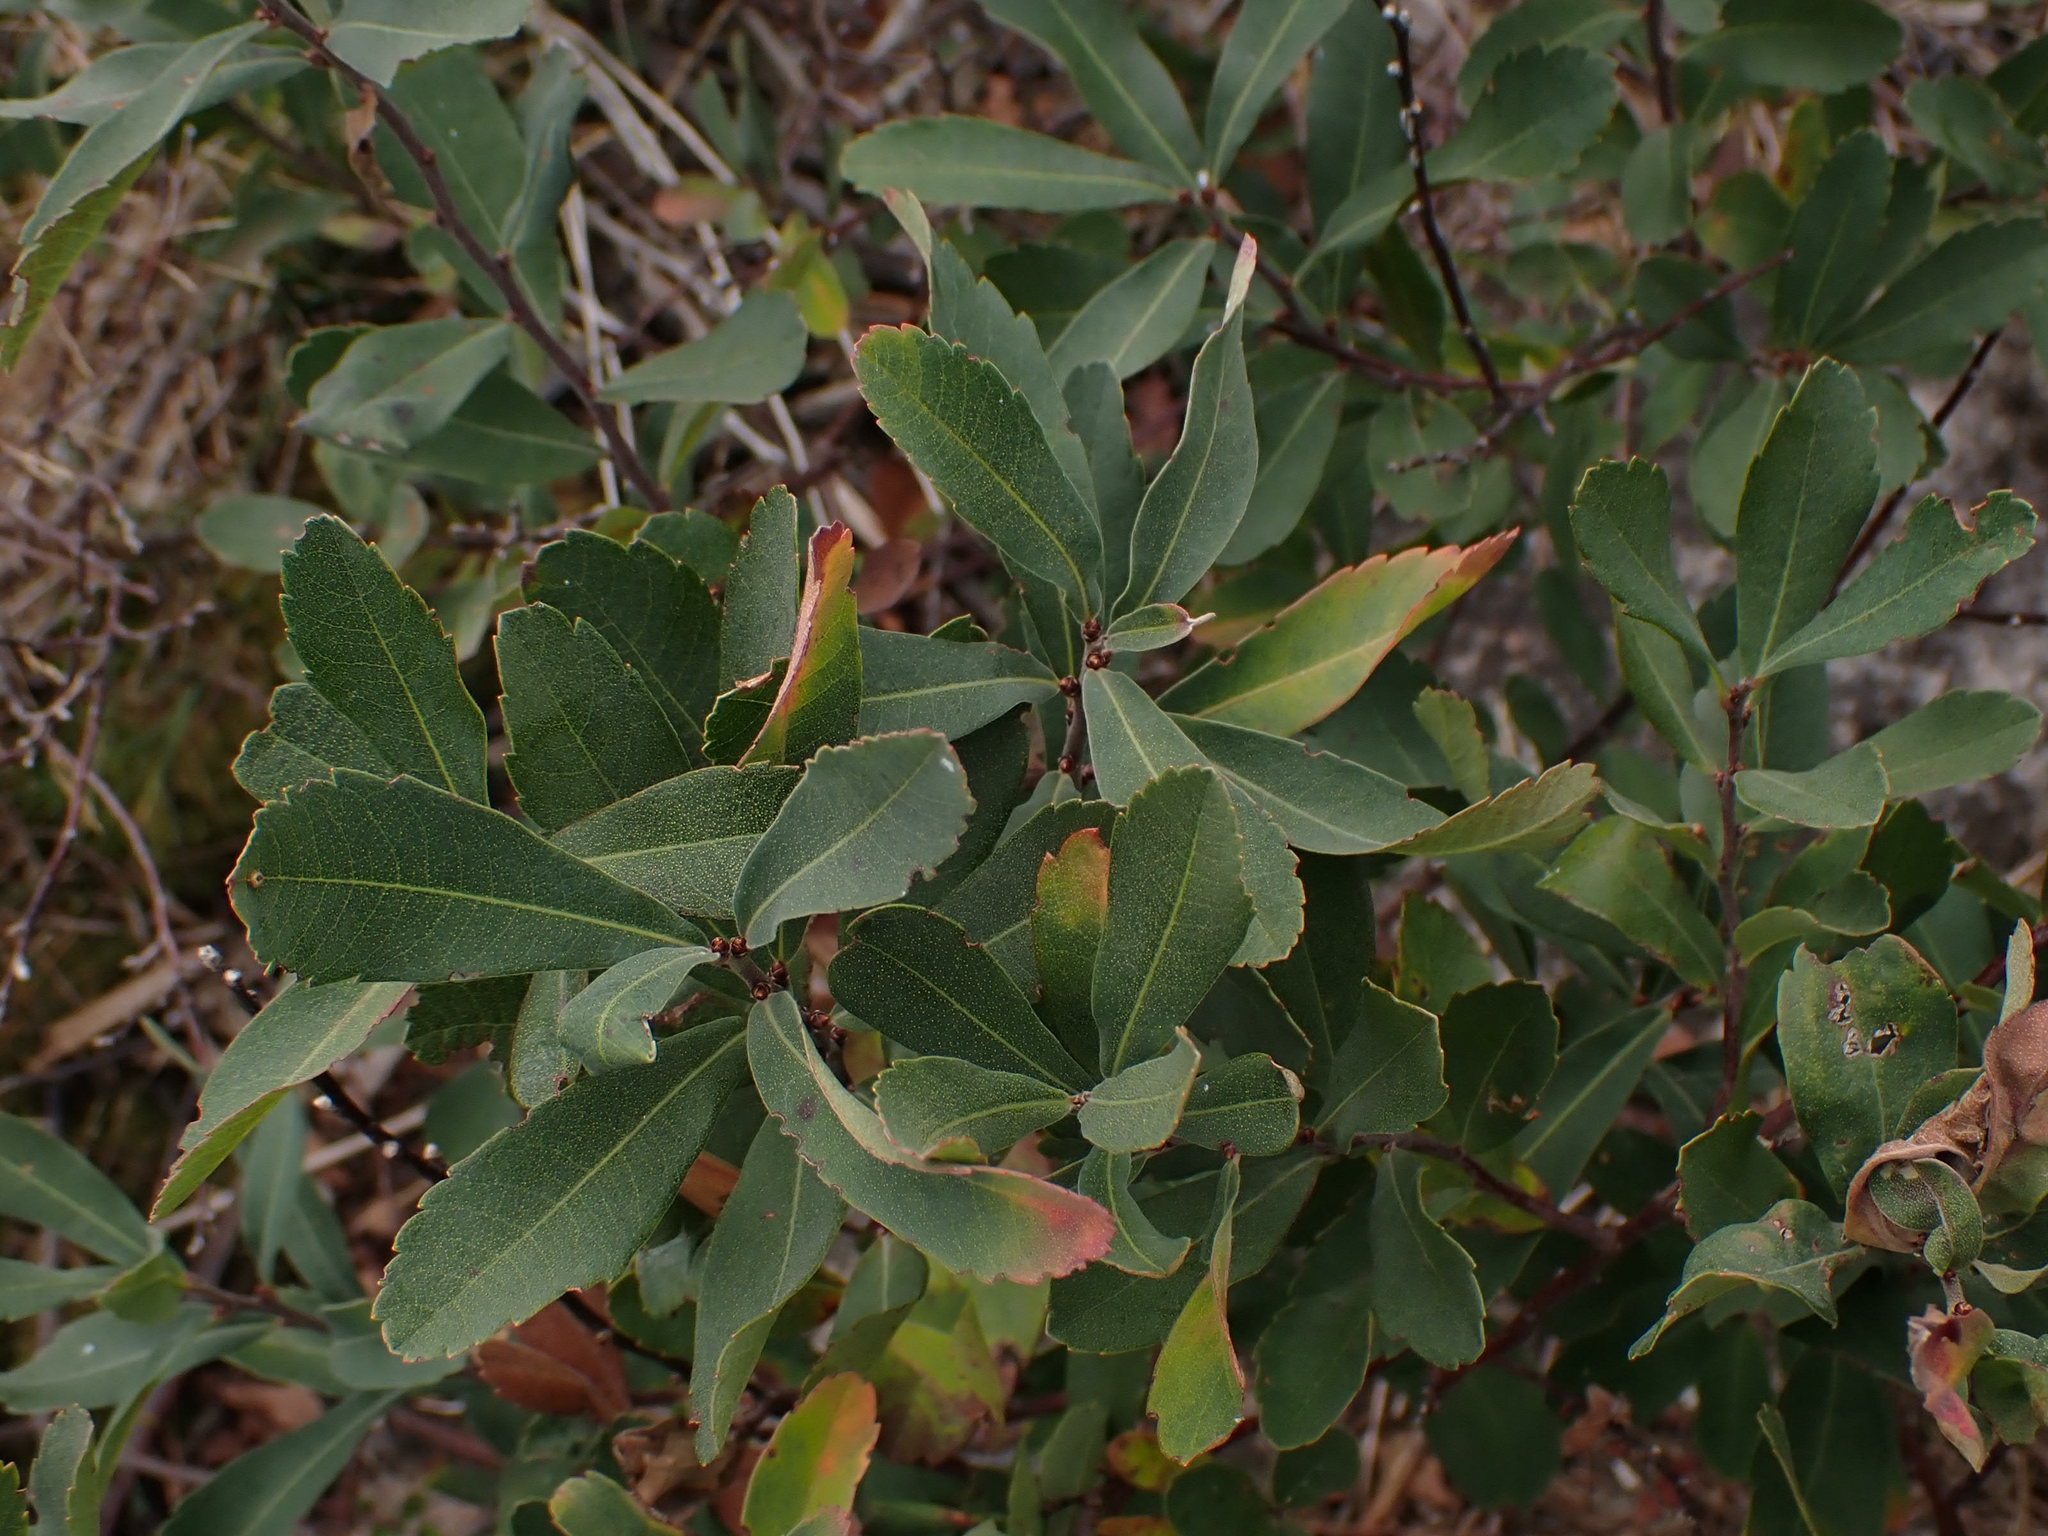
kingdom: Plantae
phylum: Tracheophyta
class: Magnoliopsida
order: Fagales
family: Myricaceae
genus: Myrica
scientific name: Myrica gale
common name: Sweet gale
